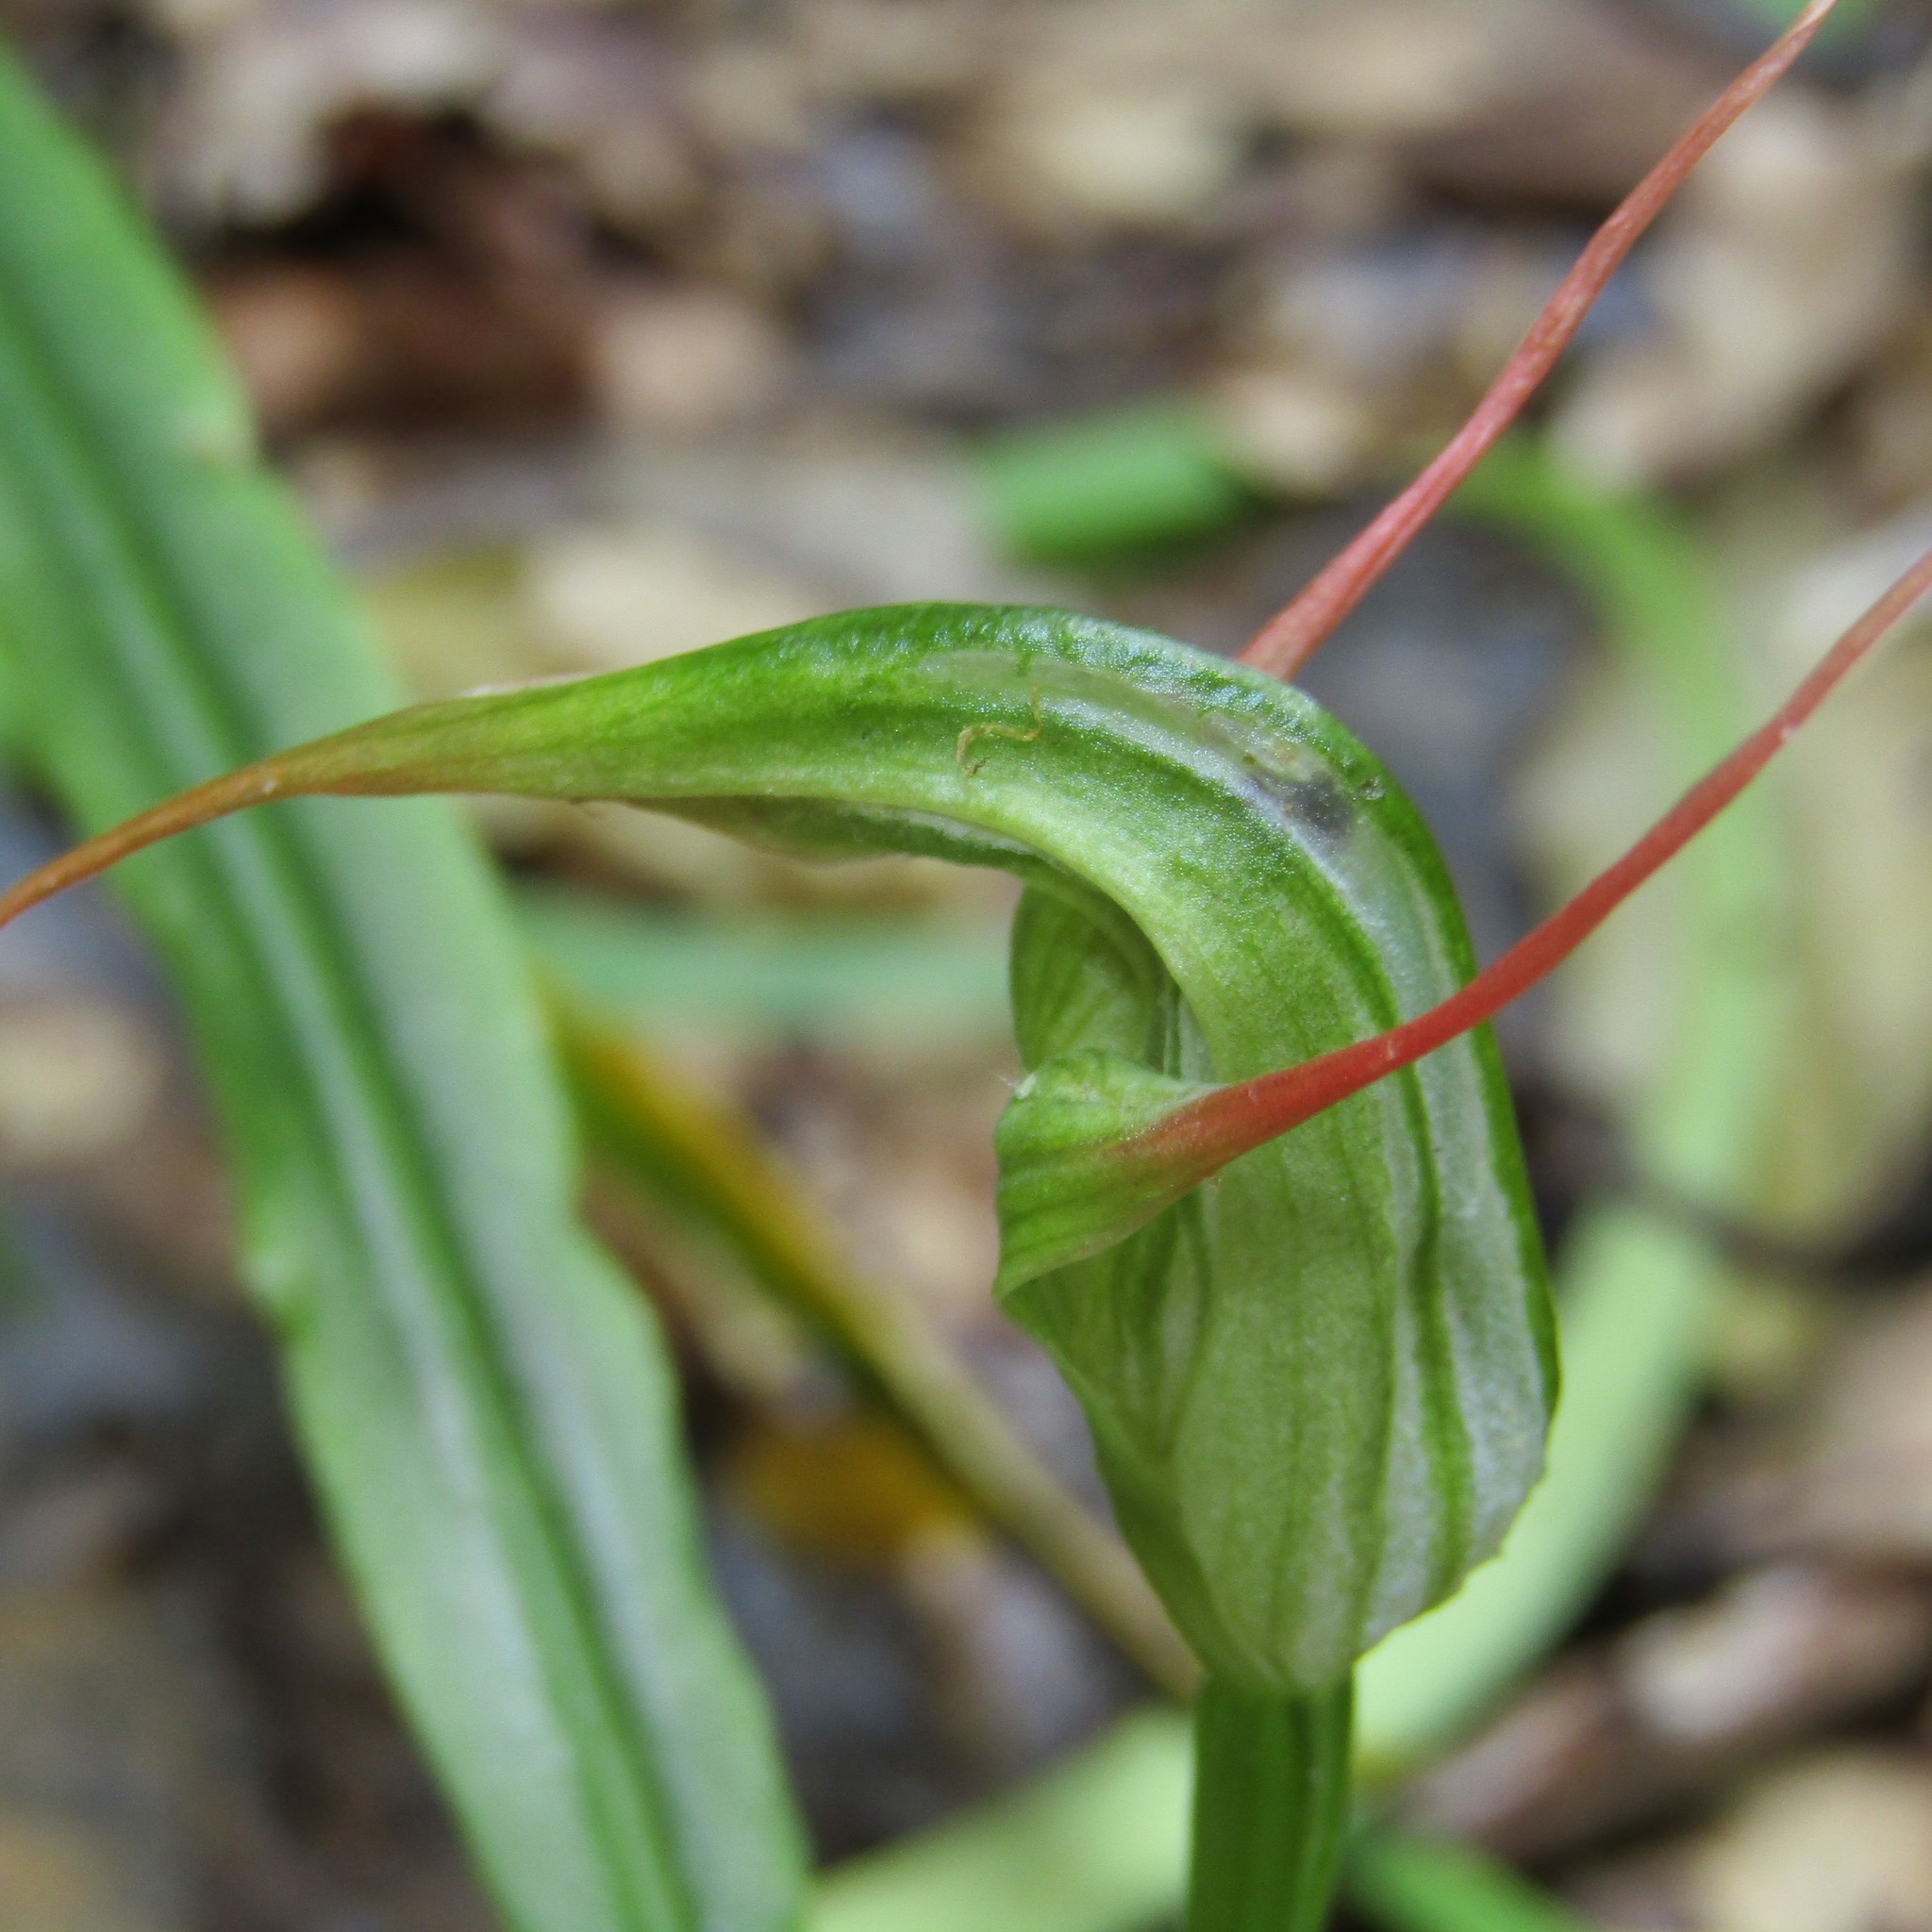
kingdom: Plantae
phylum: Tracheophyta
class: Liliopsida
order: Asparagales
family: Orchidaceae
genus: Pterostylis
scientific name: Pterostylis banksii
